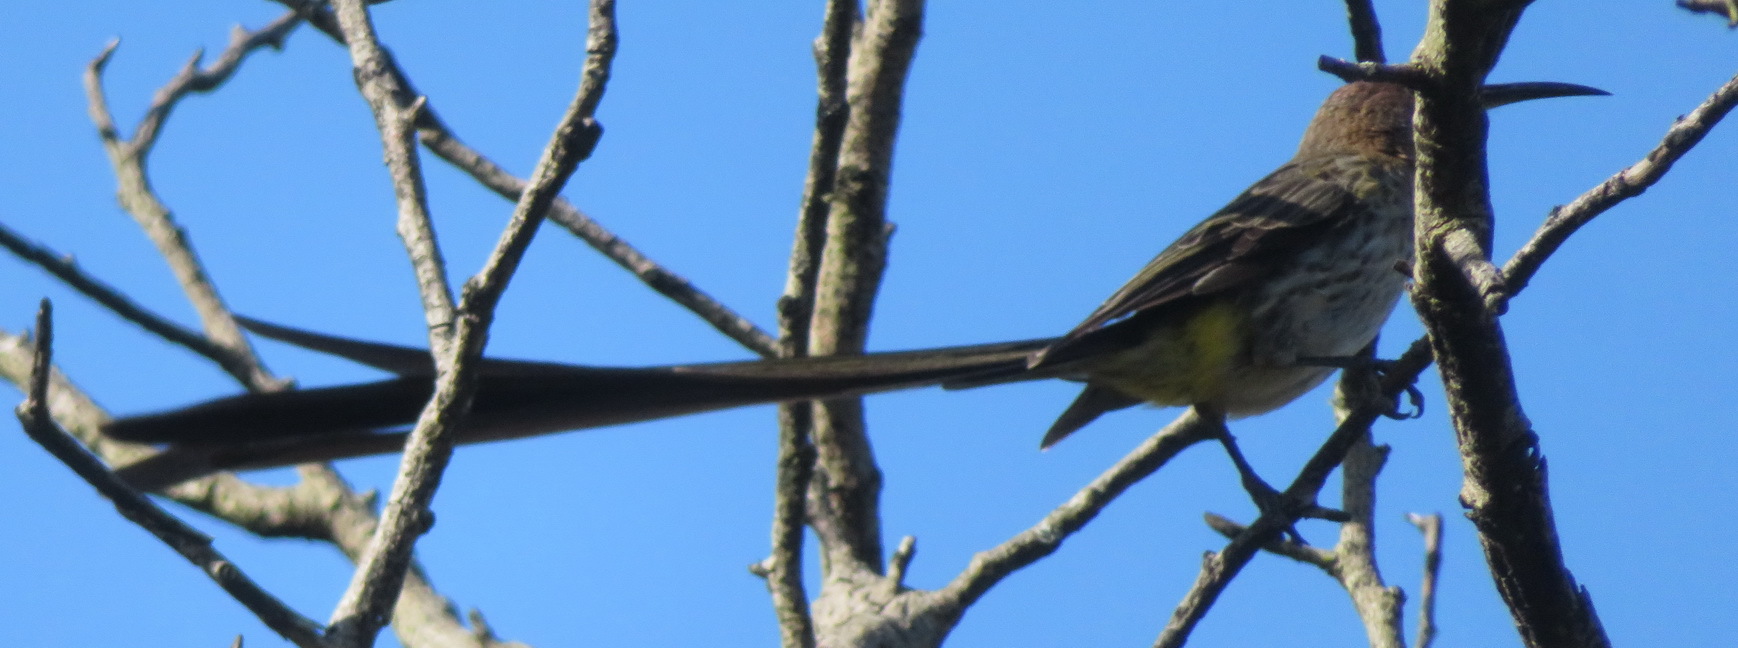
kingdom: Animalia
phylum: Chordata
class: Aves
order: Passeriformes
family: Promeropidae
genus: Promerops
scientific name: Promerops cafer
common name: Cape sugarbird
